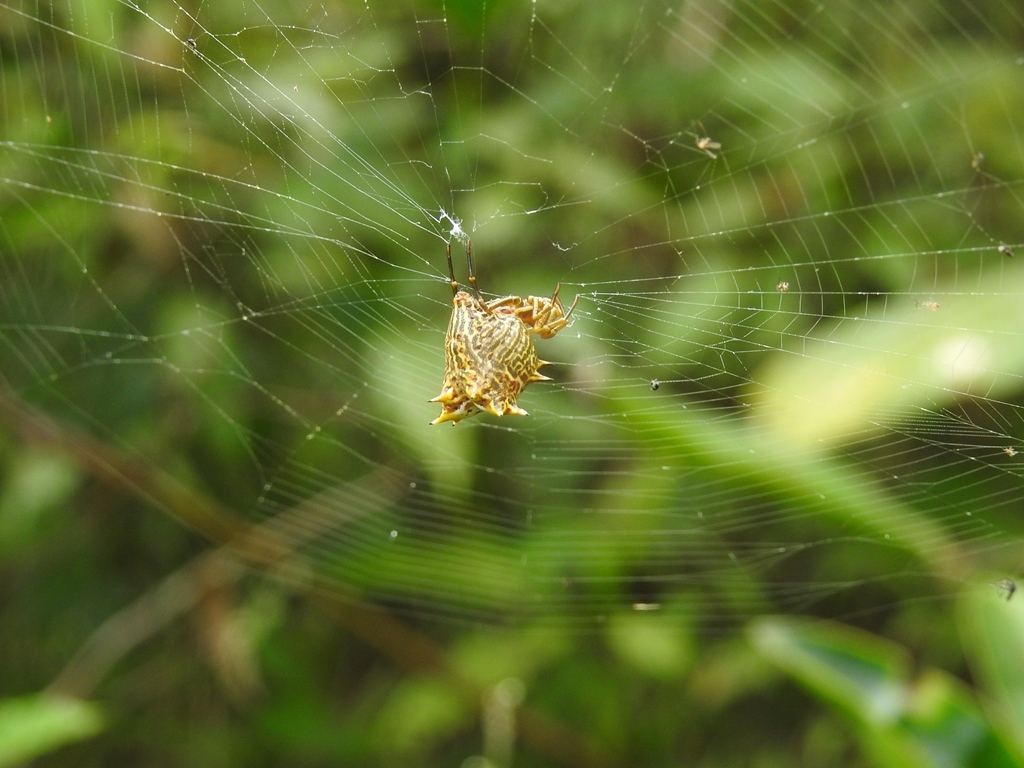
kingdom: Animalia
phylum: Arthropoda
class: Arachnida
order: Araneae
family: Araneidae
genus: Micrathena
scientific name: Micrathena gracilis
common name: Orb weavers
